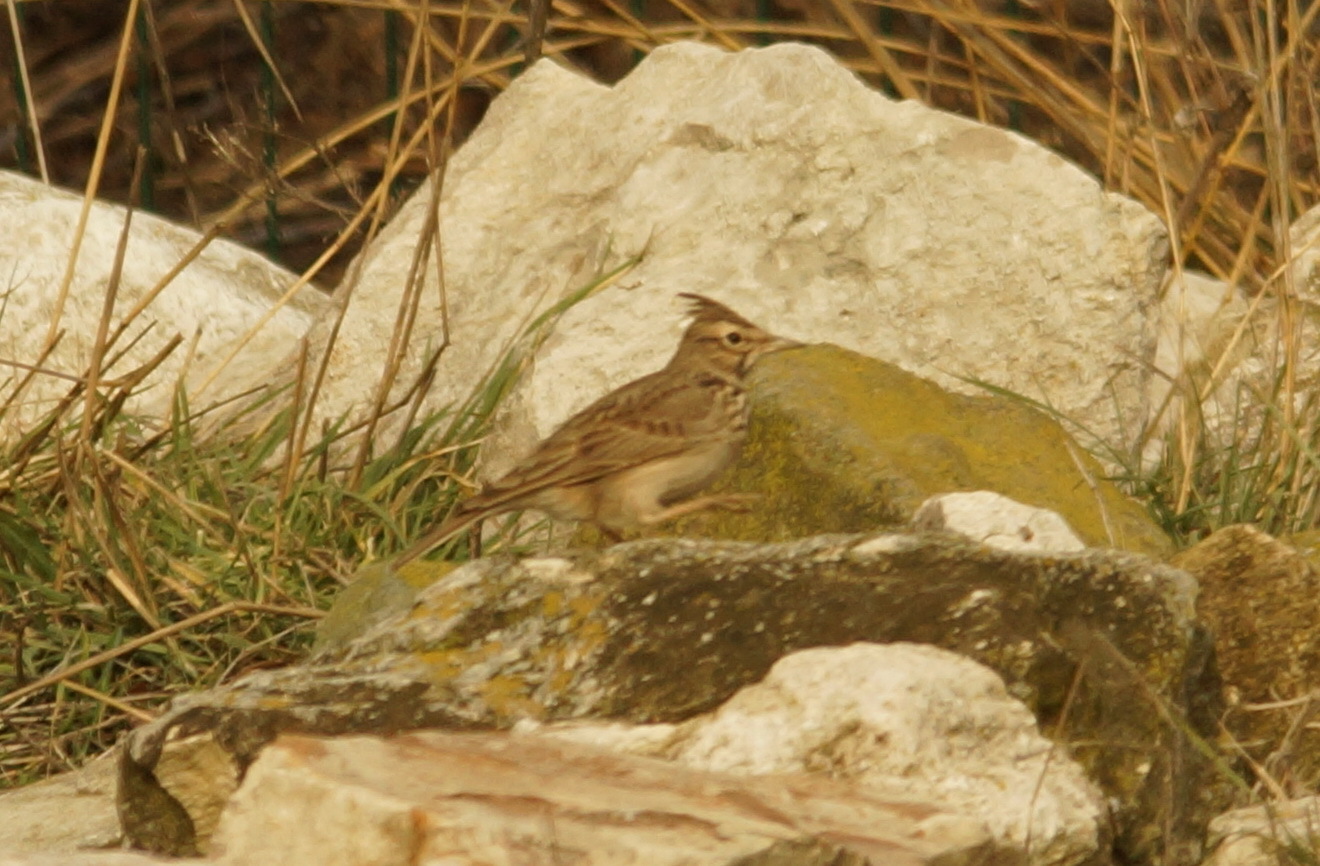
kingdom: Animalia
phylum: Chordata
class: Aves
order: Passeriformes
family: Alaudidae
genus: Galerida
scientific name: Galerida cristata
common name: Crested lark
